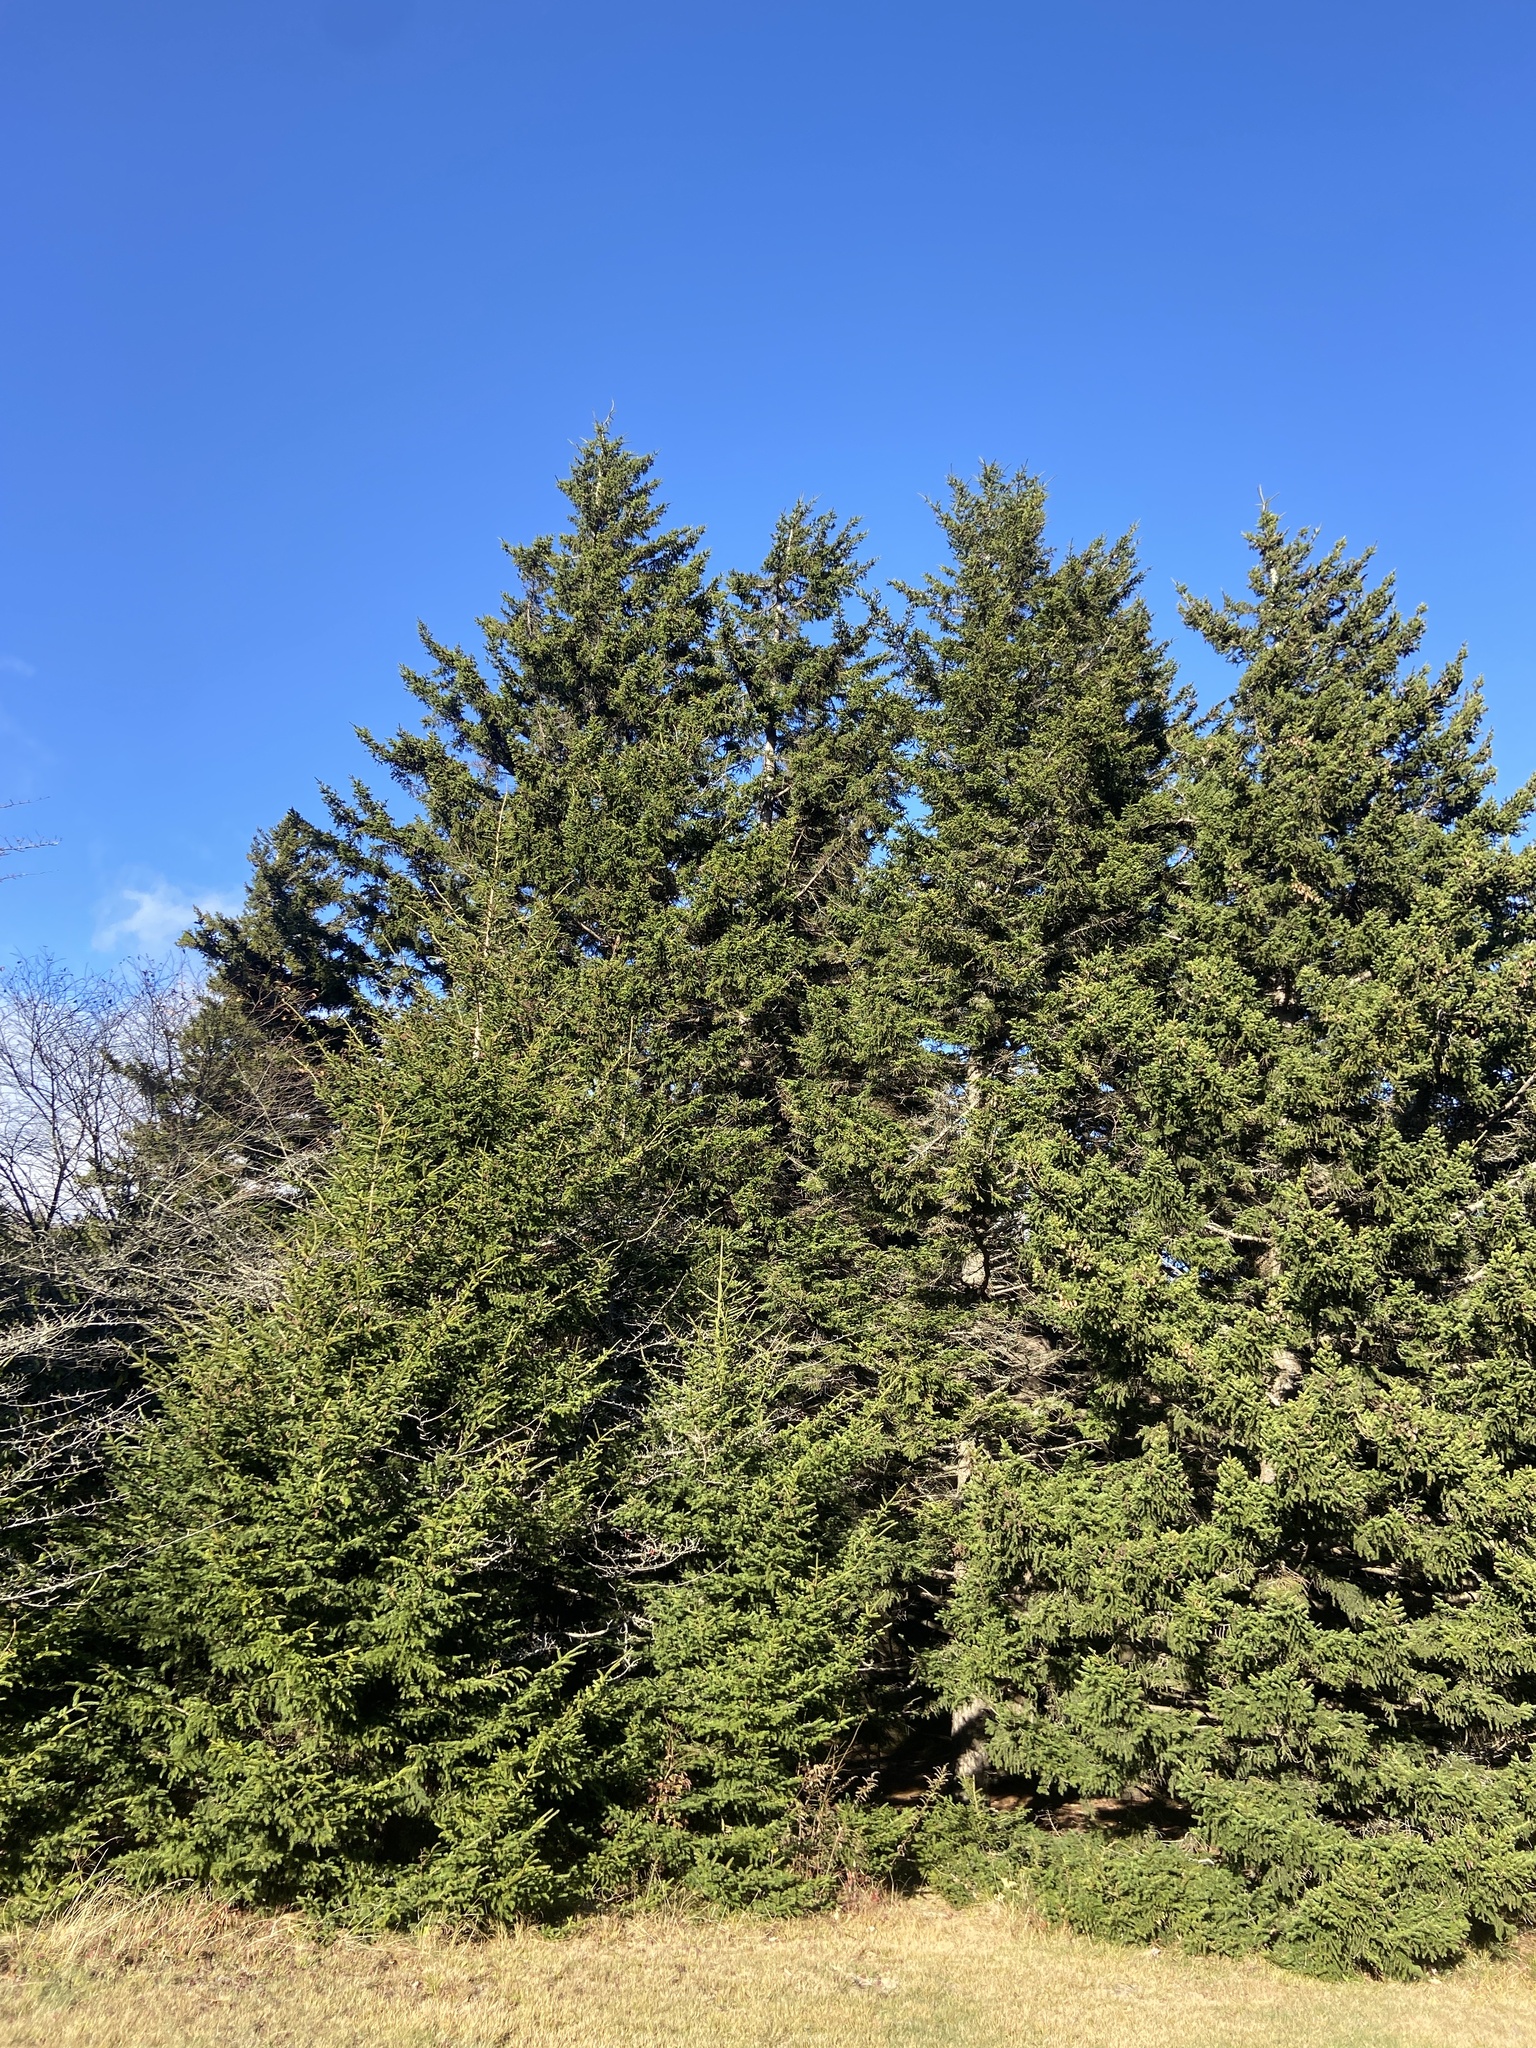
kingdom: Plantae
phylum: Tracheophyta
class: Pinopsida
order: Pinales
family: Pinaceae
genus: Picea
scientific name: Picea rubens
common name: Red spruce
